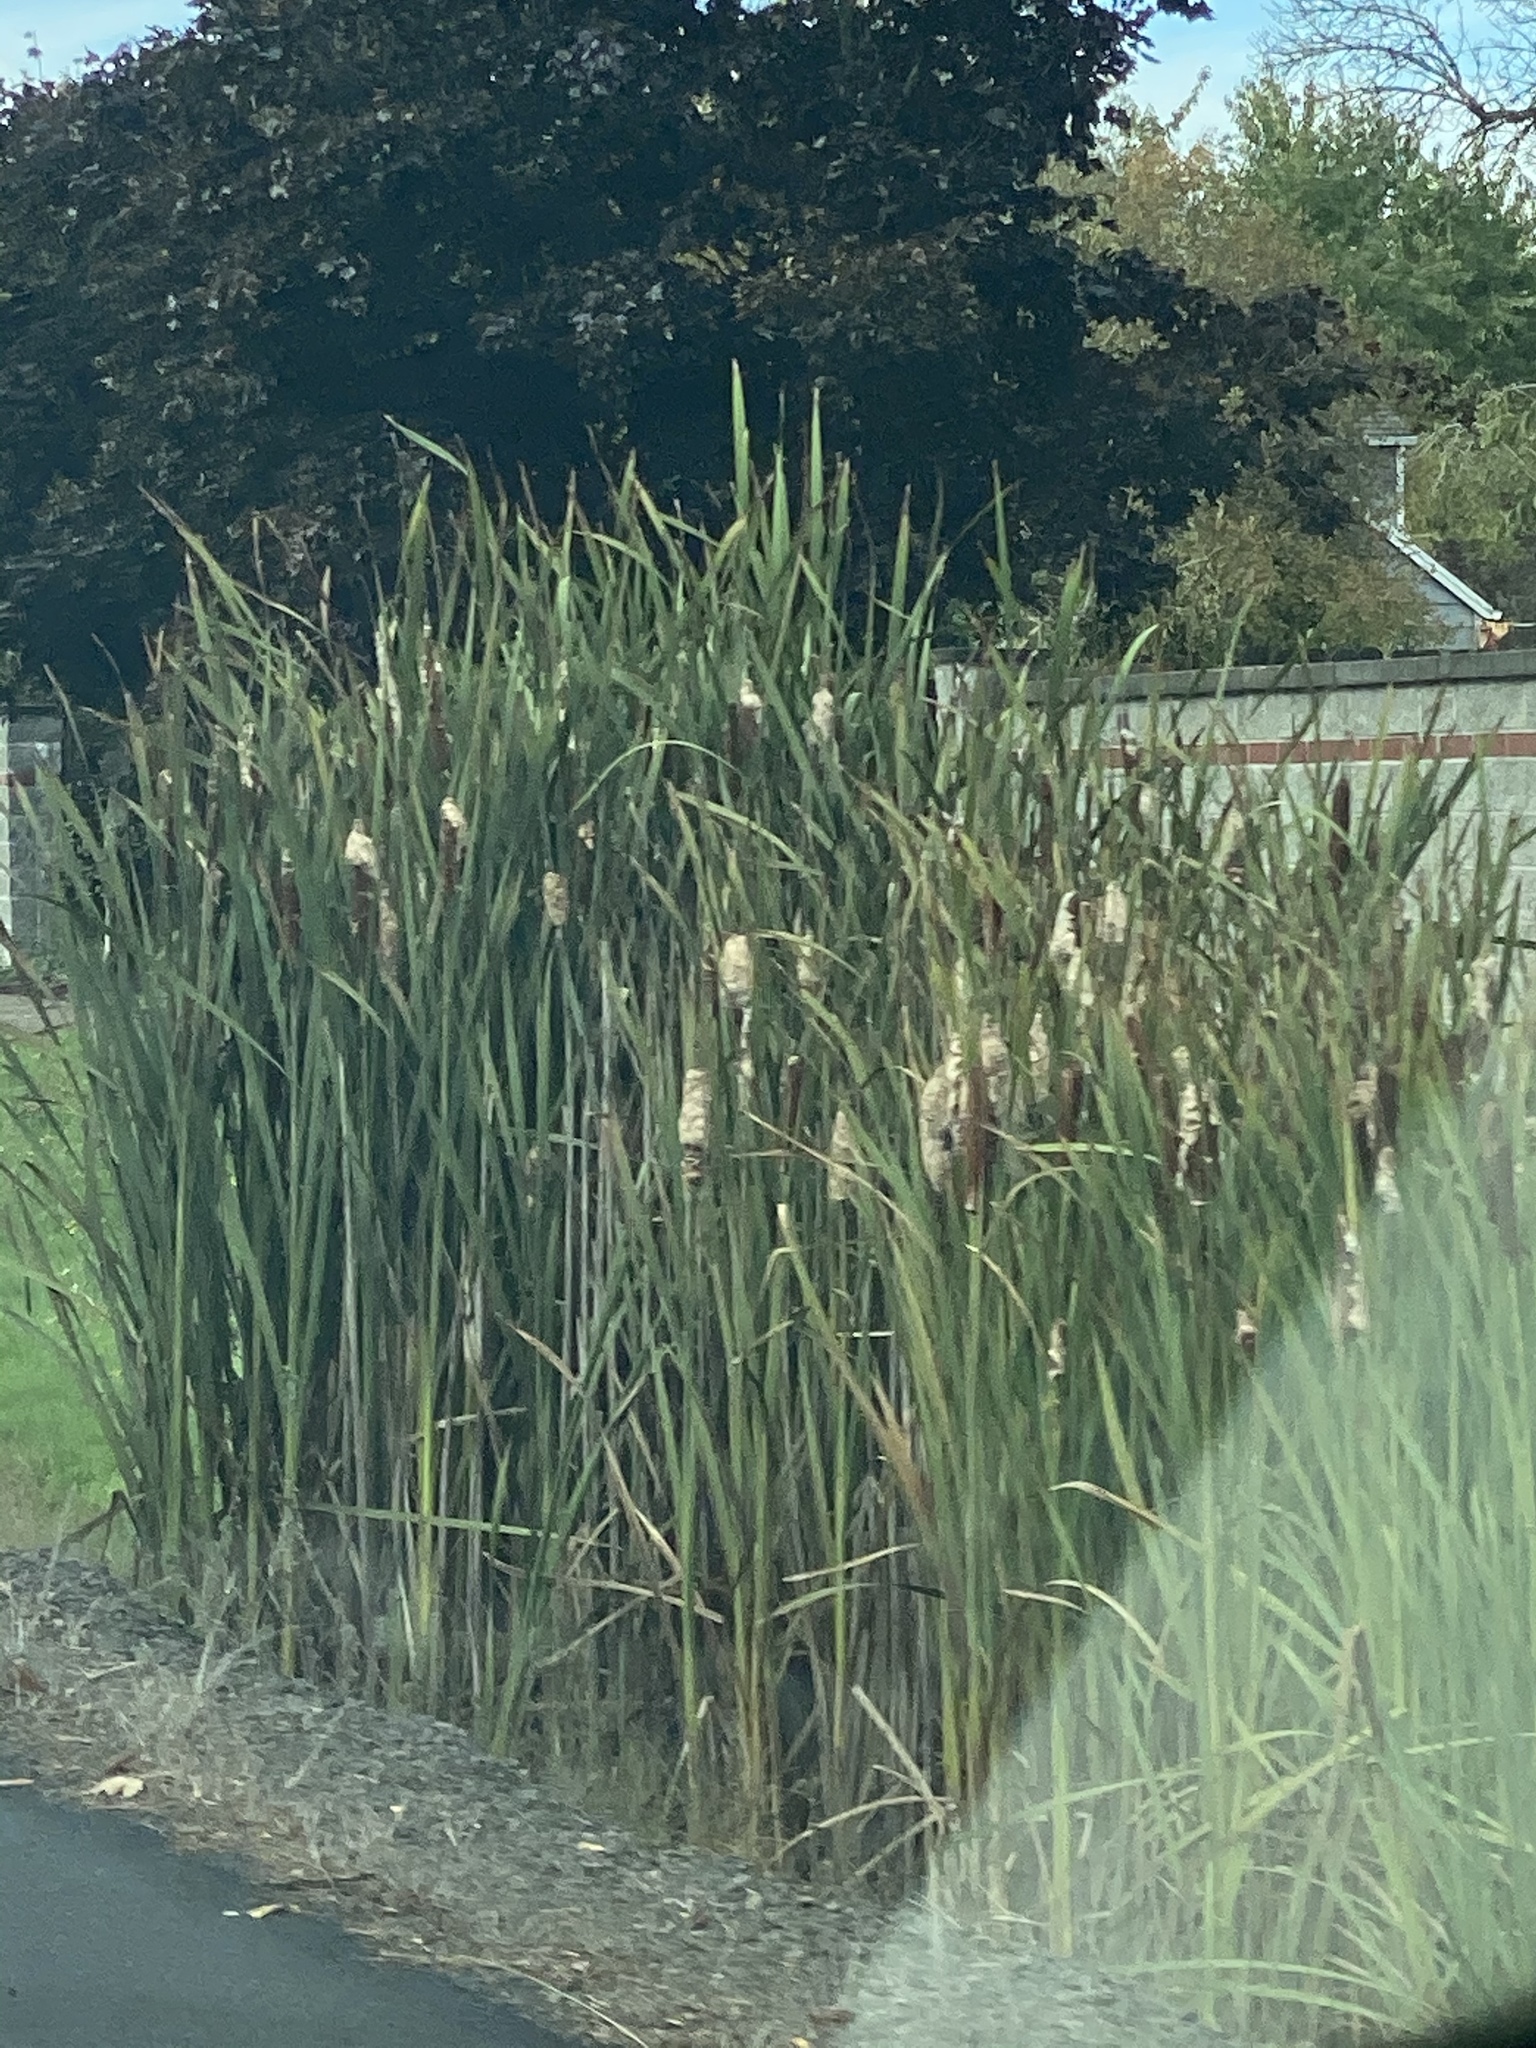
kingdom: Plantae
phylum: Tracheophyta
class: Liliopsida
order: Poales
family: Typhaceae
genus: Typha
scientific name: Typha latifolia
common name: Broadleaf cattail
